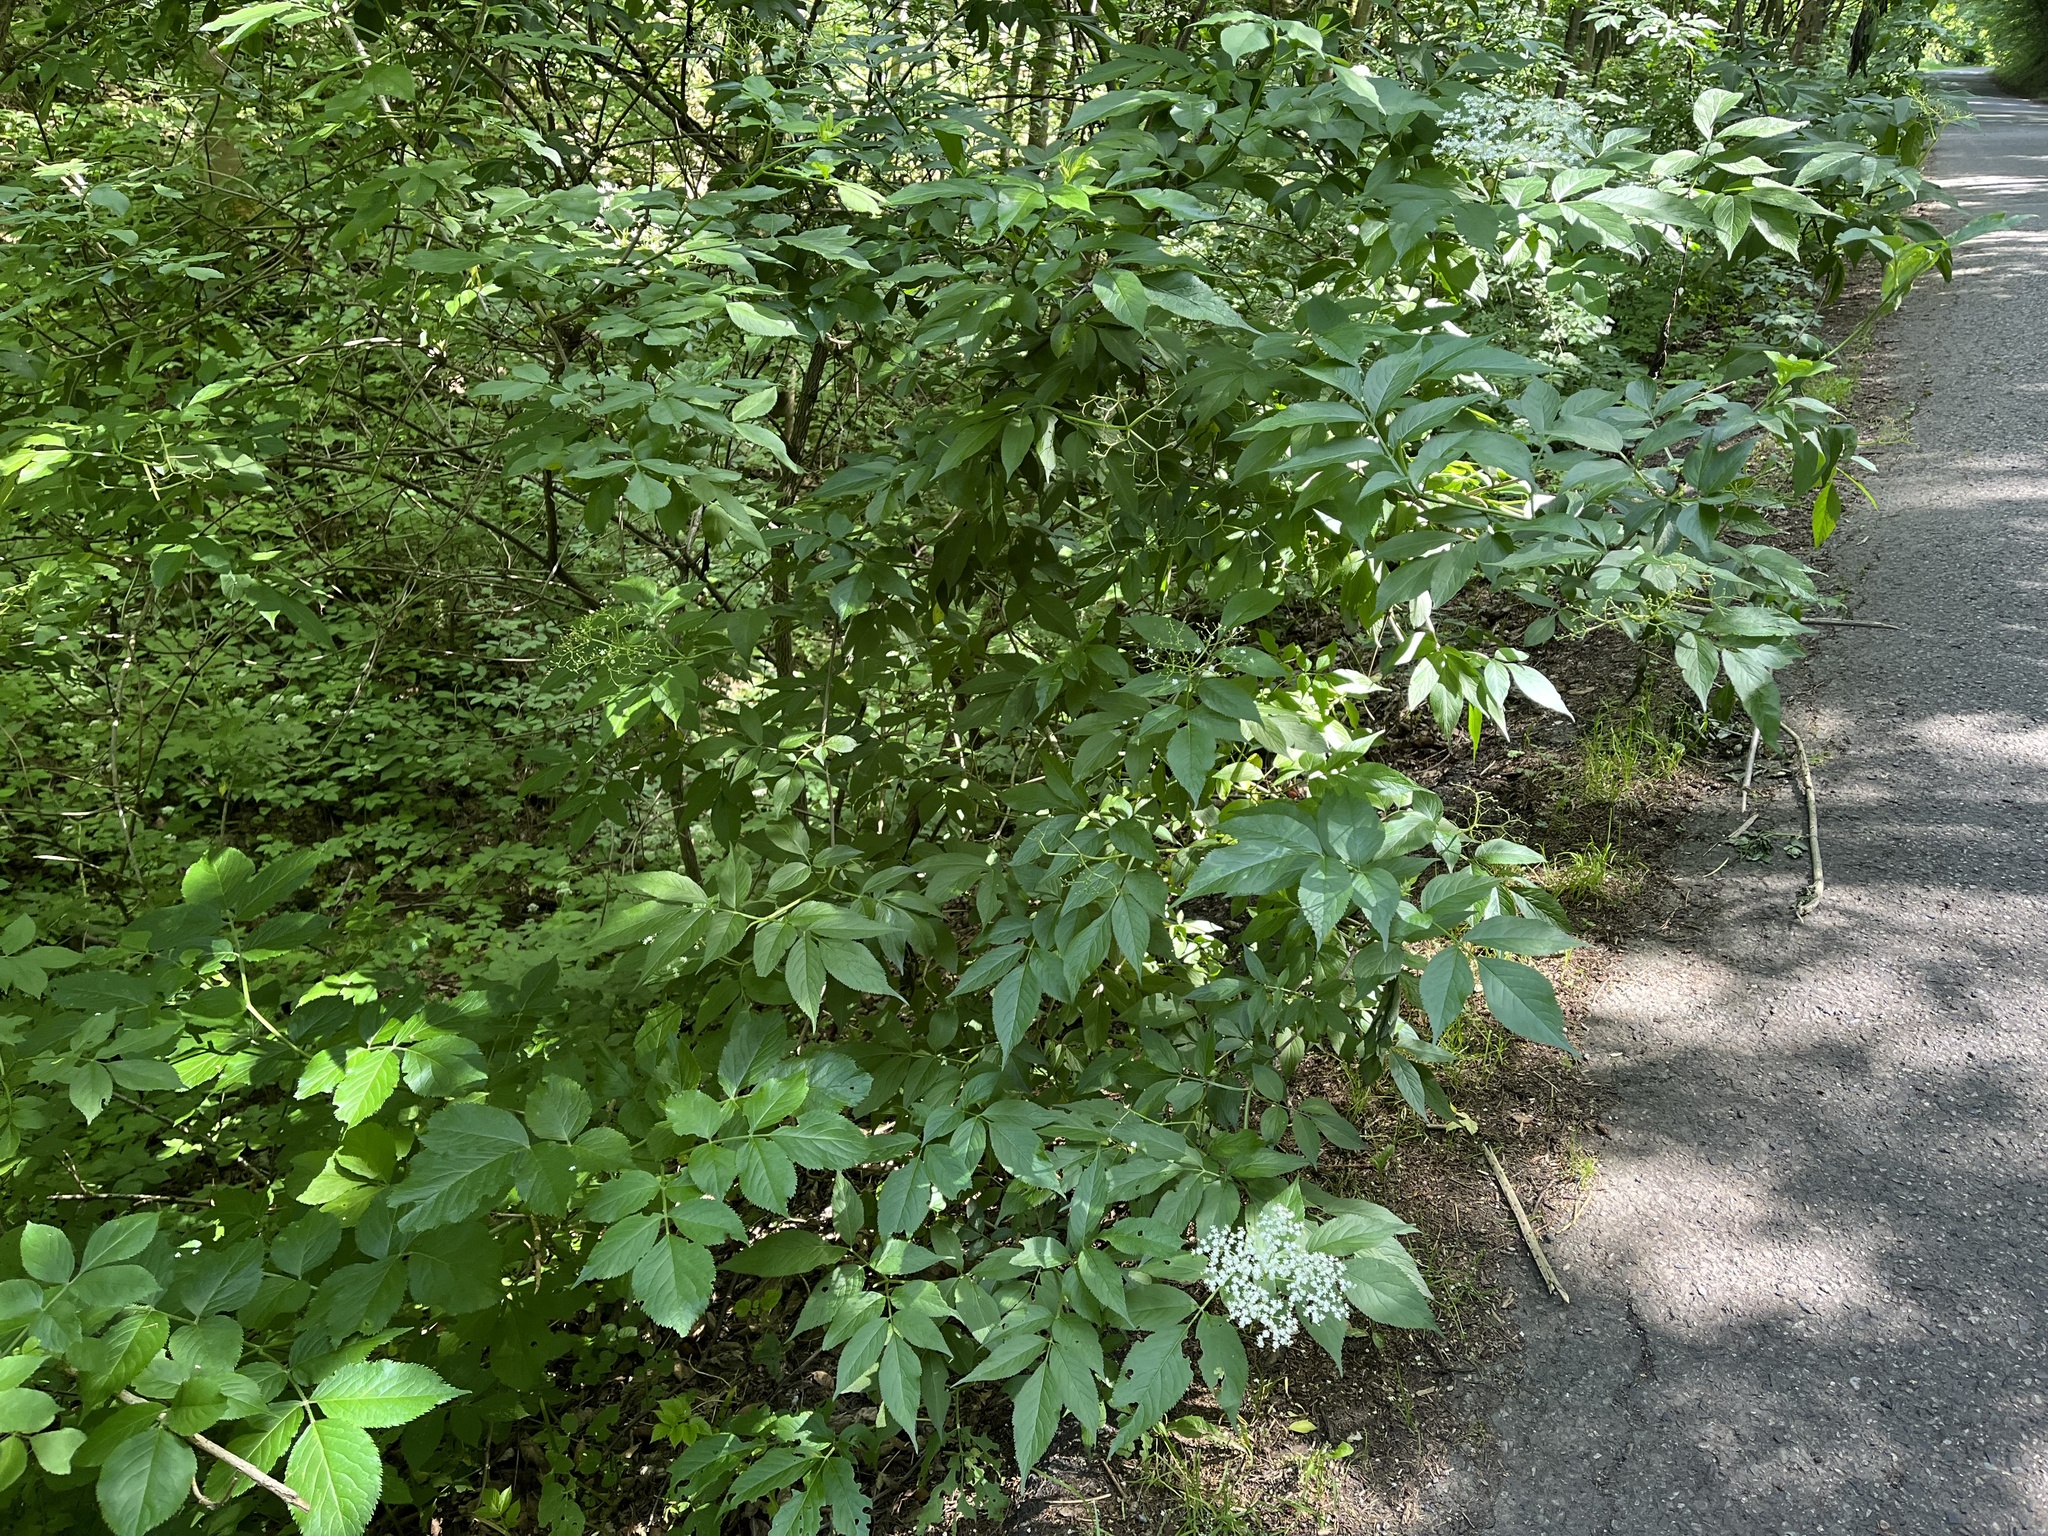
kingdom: Plantae
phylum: Tracheophyta
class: Magnoliopsida
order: Dipsacales
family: Viburnaceae
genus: Sambucus
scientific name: Sambucus nigra
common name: Elder
